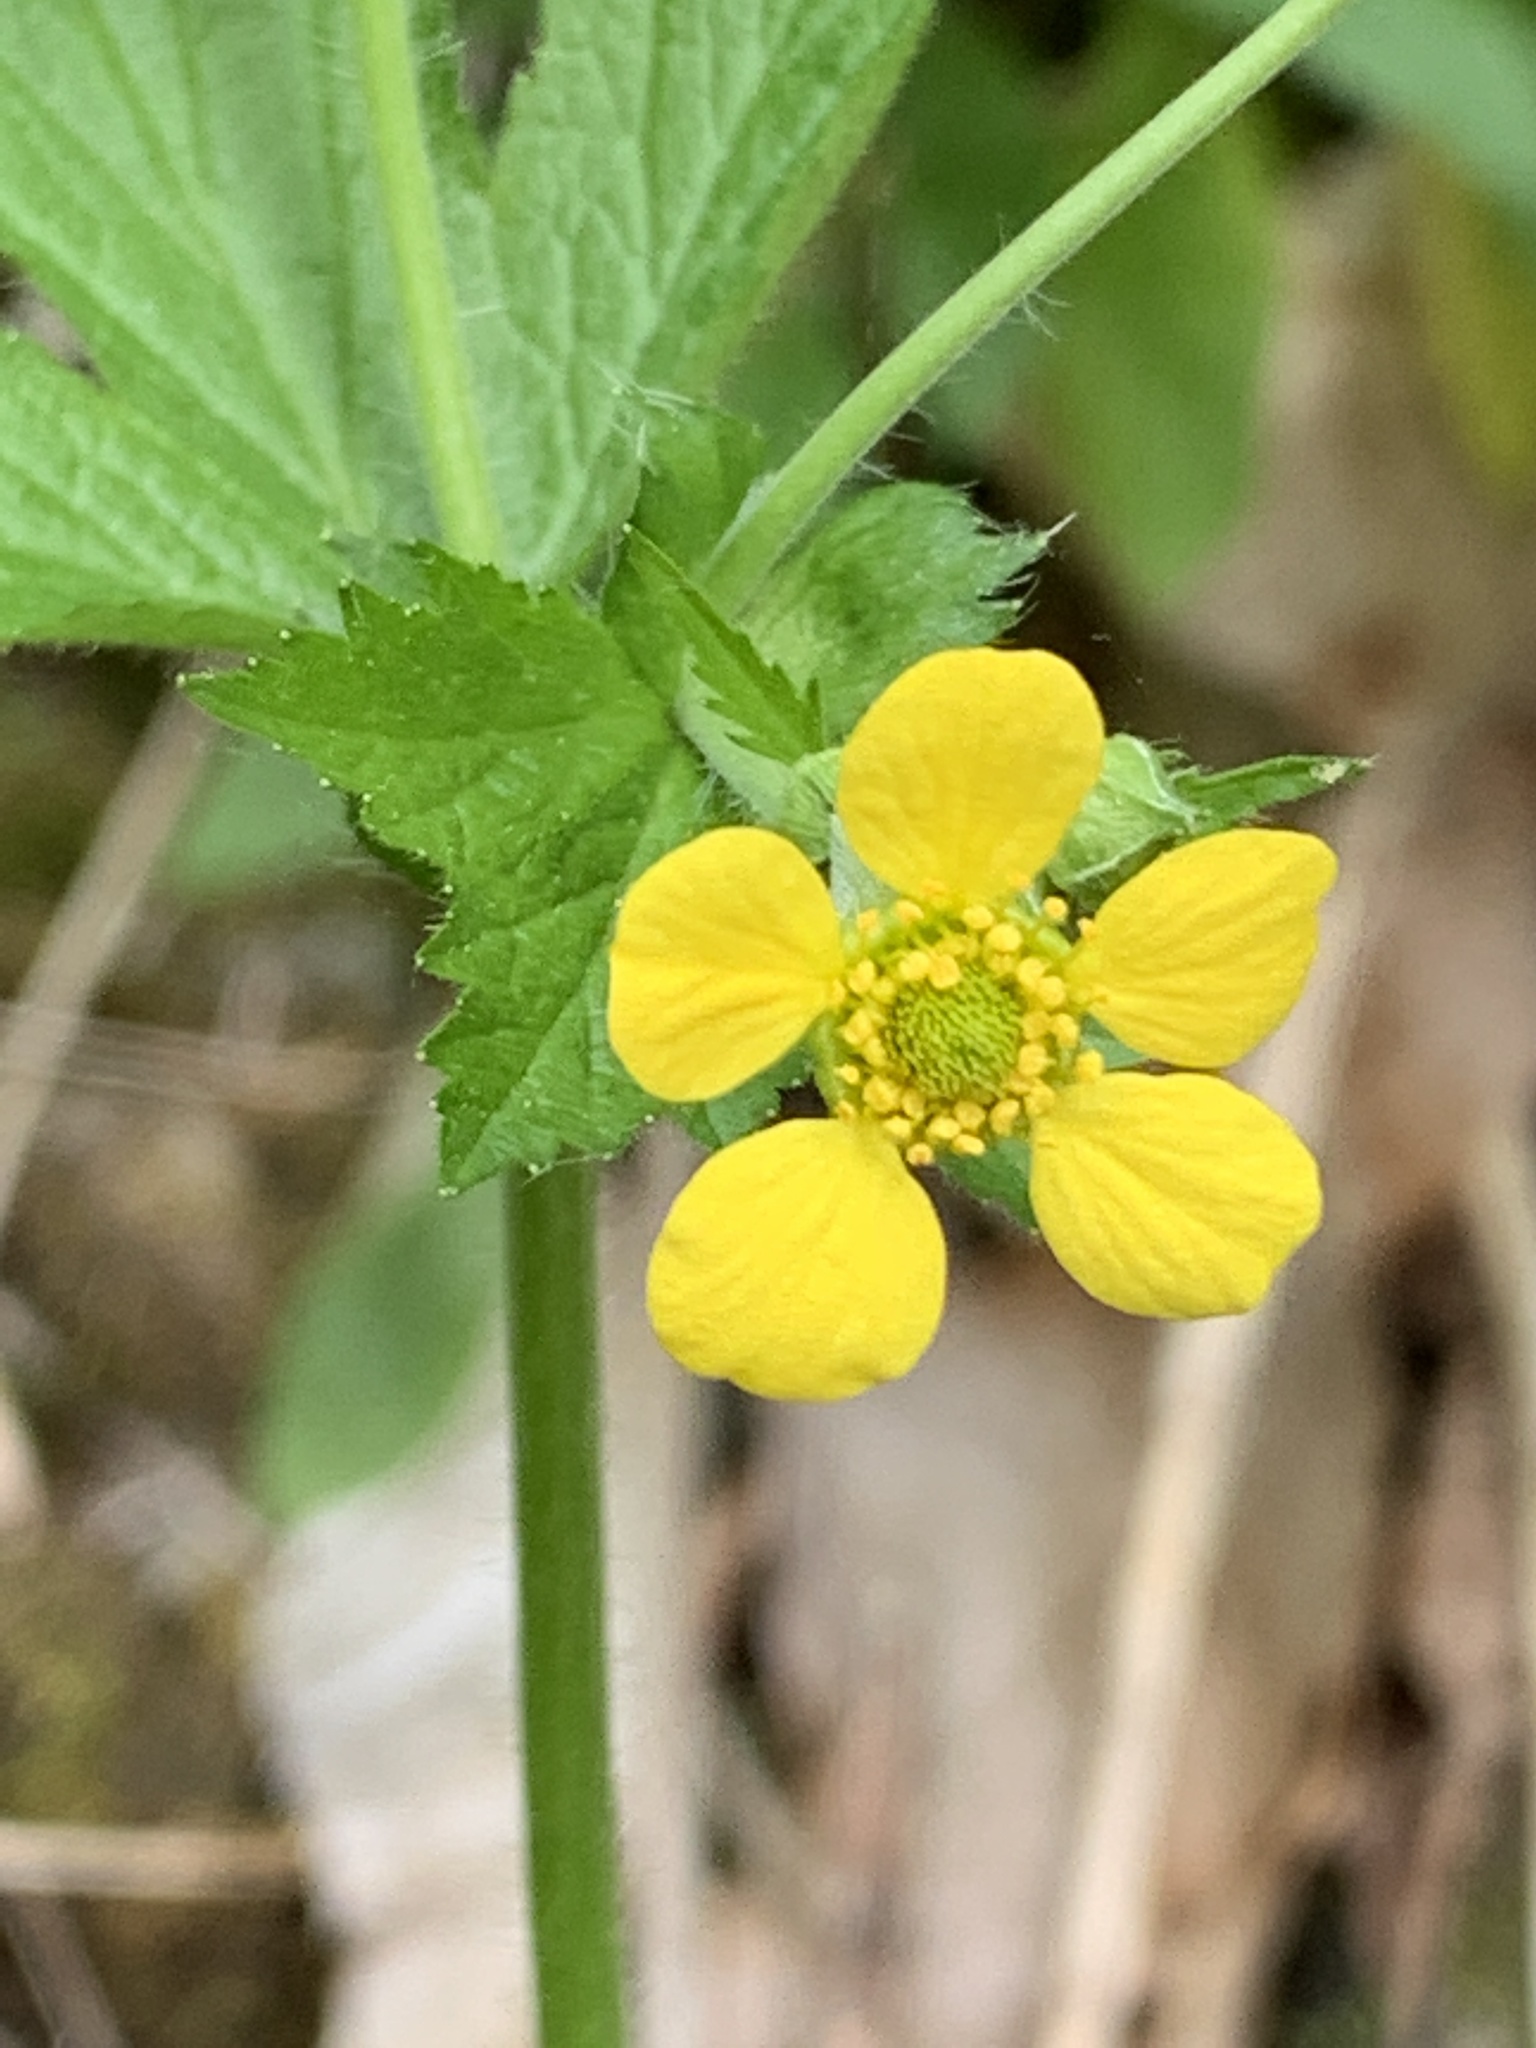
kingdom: Plantae
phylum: Tracheophyta
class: Magnoliopsida
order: Rosales
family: Rosaceae
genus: Geum
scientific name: Geum macrophyllum
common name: Large-leaved avens
